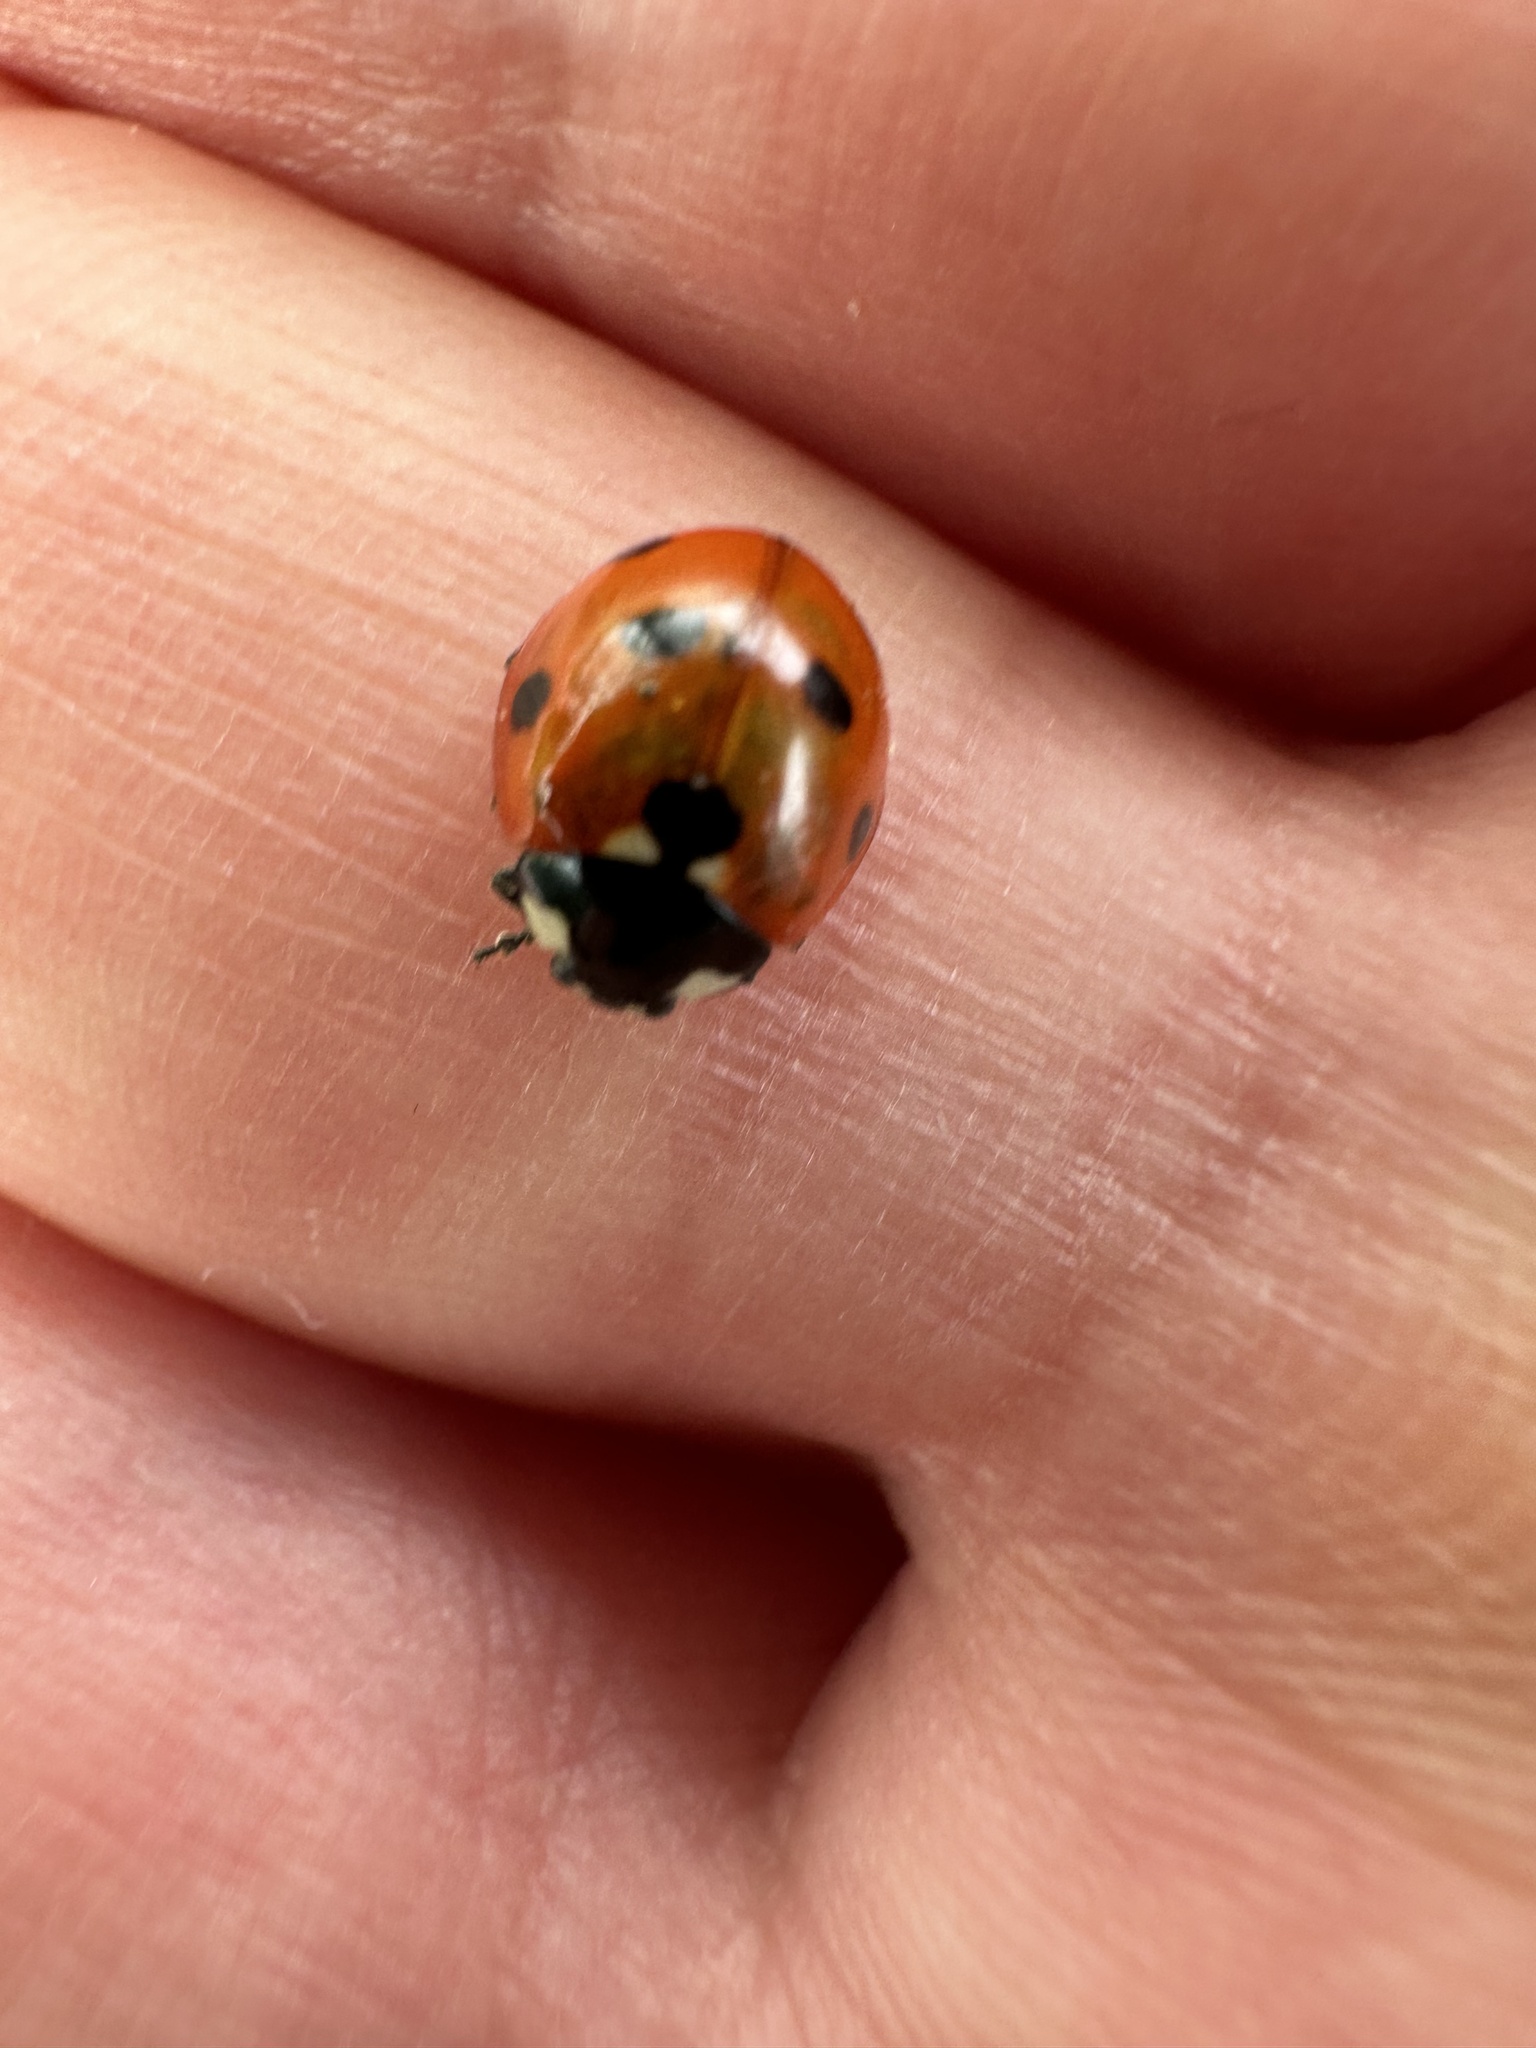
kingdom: Animalia
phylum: Arthropoda
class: Insecta
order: Coleoptera
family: Coccinellidae
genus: Coccinella
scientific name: Coccinella septempunctata
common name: Sevenspotted lady beetle
